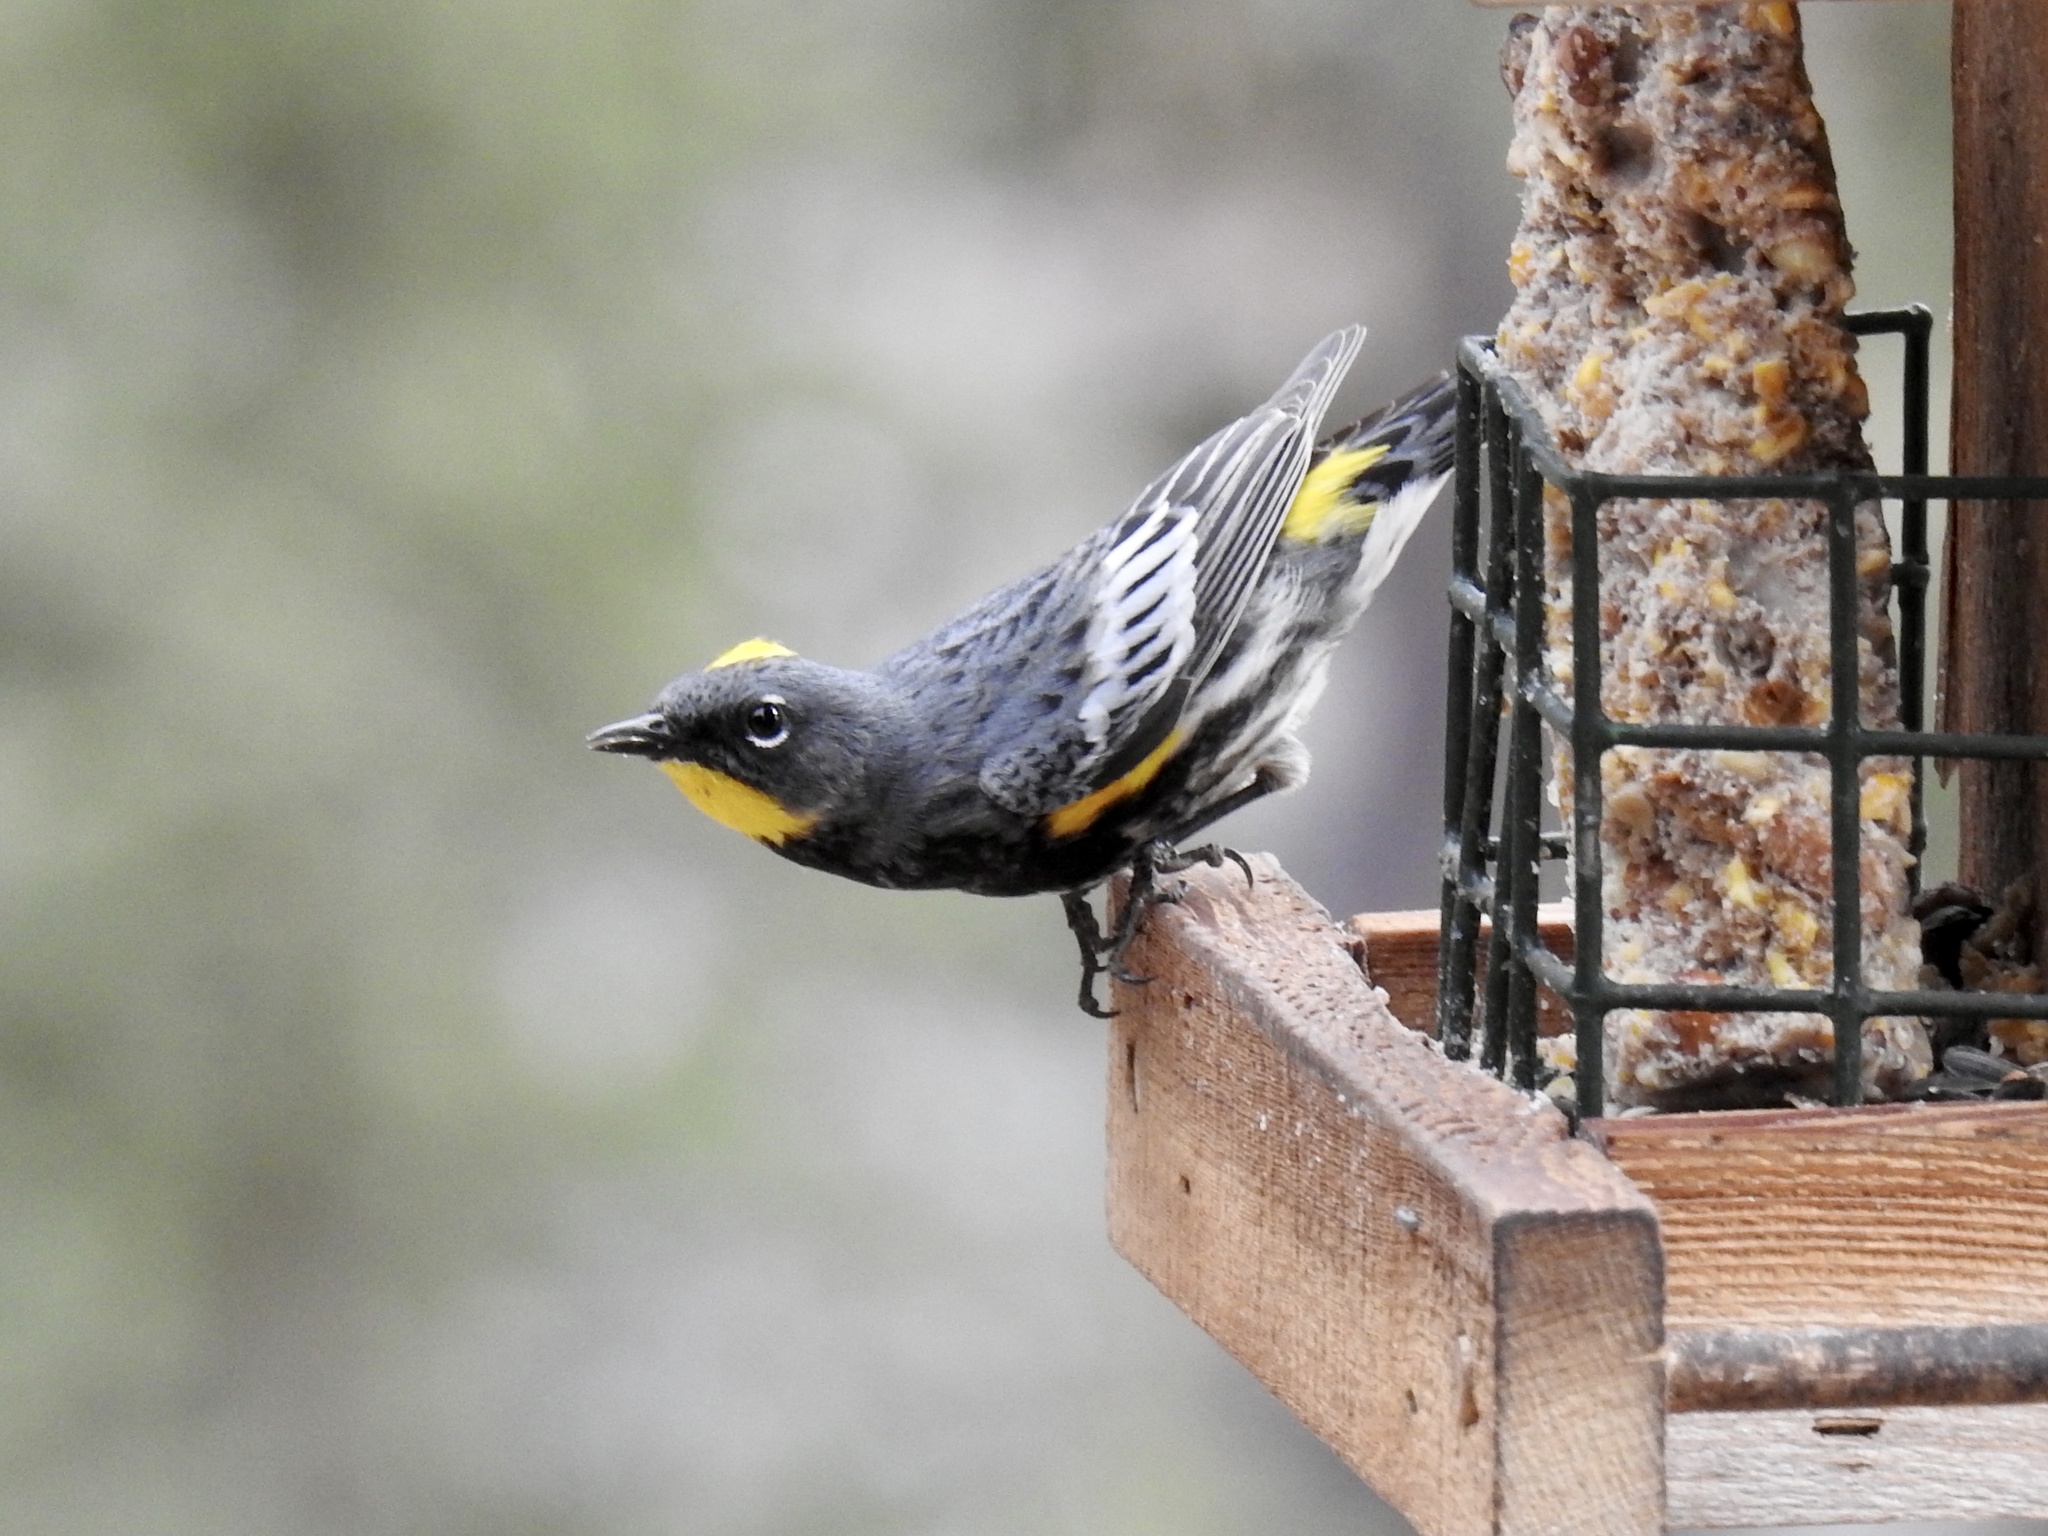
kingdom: Animalia
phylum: Chordata
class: Aves
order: Passeriformes
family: Parulidae
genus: Setophaga
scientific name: Setophaga coronata
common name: Myrtle warbler
